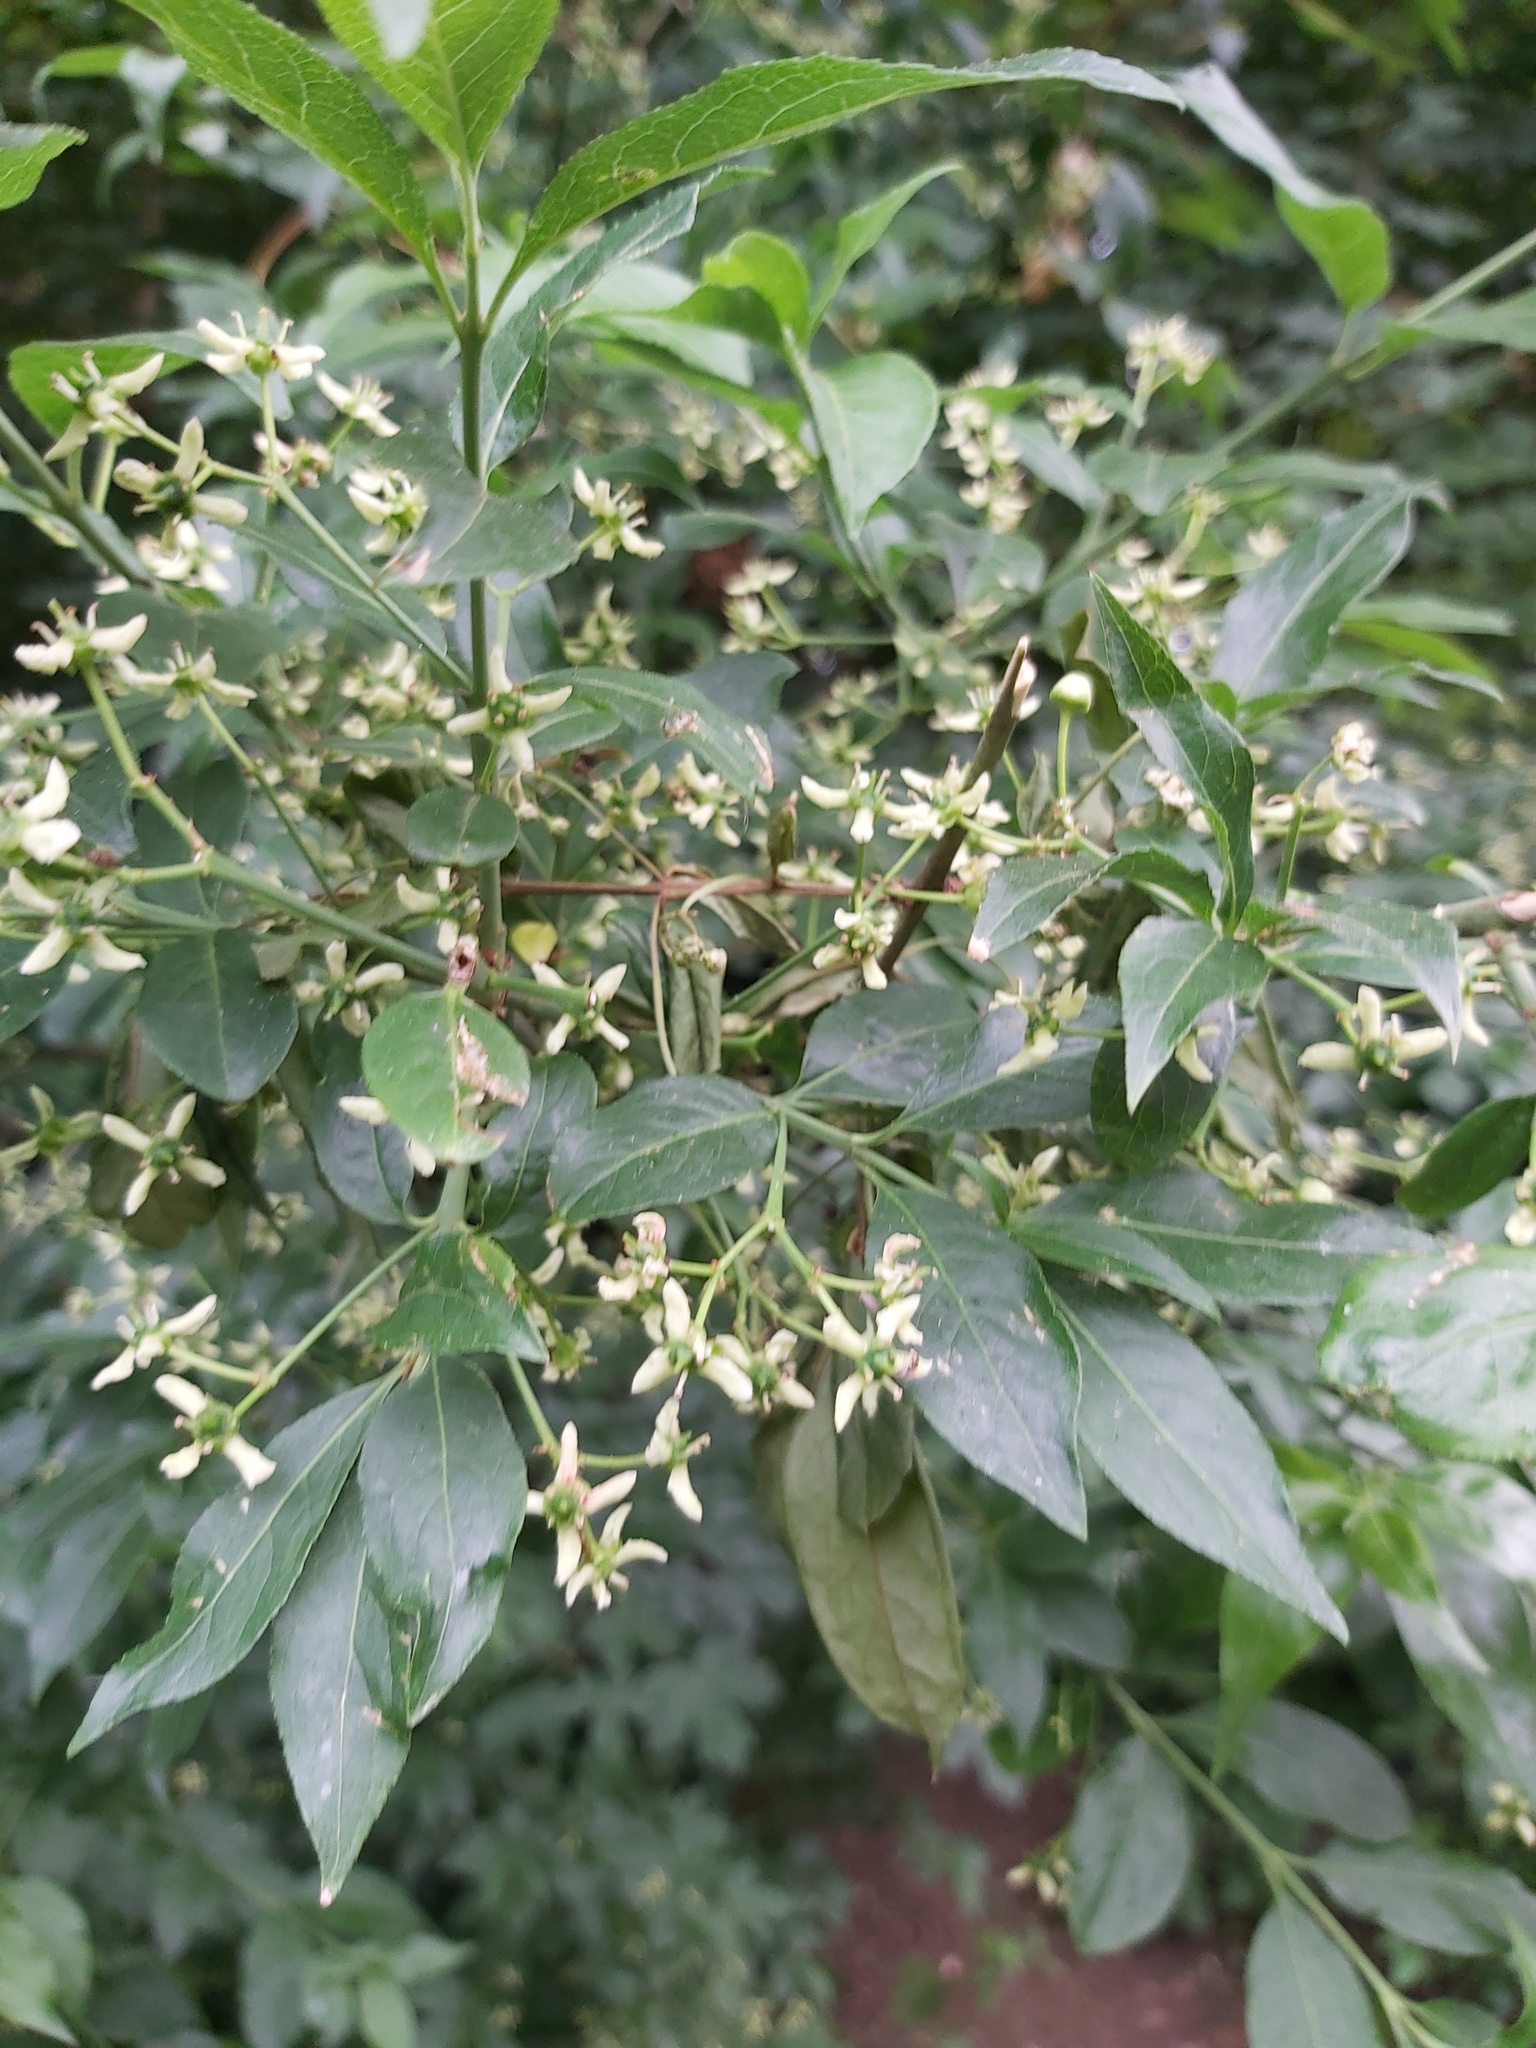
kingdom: Plantae
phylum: Tracheophyta
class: Magnoliopsida
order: Celastrales
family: Celastraceae
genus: Euonymus
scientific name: Euonymus europaeus
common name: Spindle
